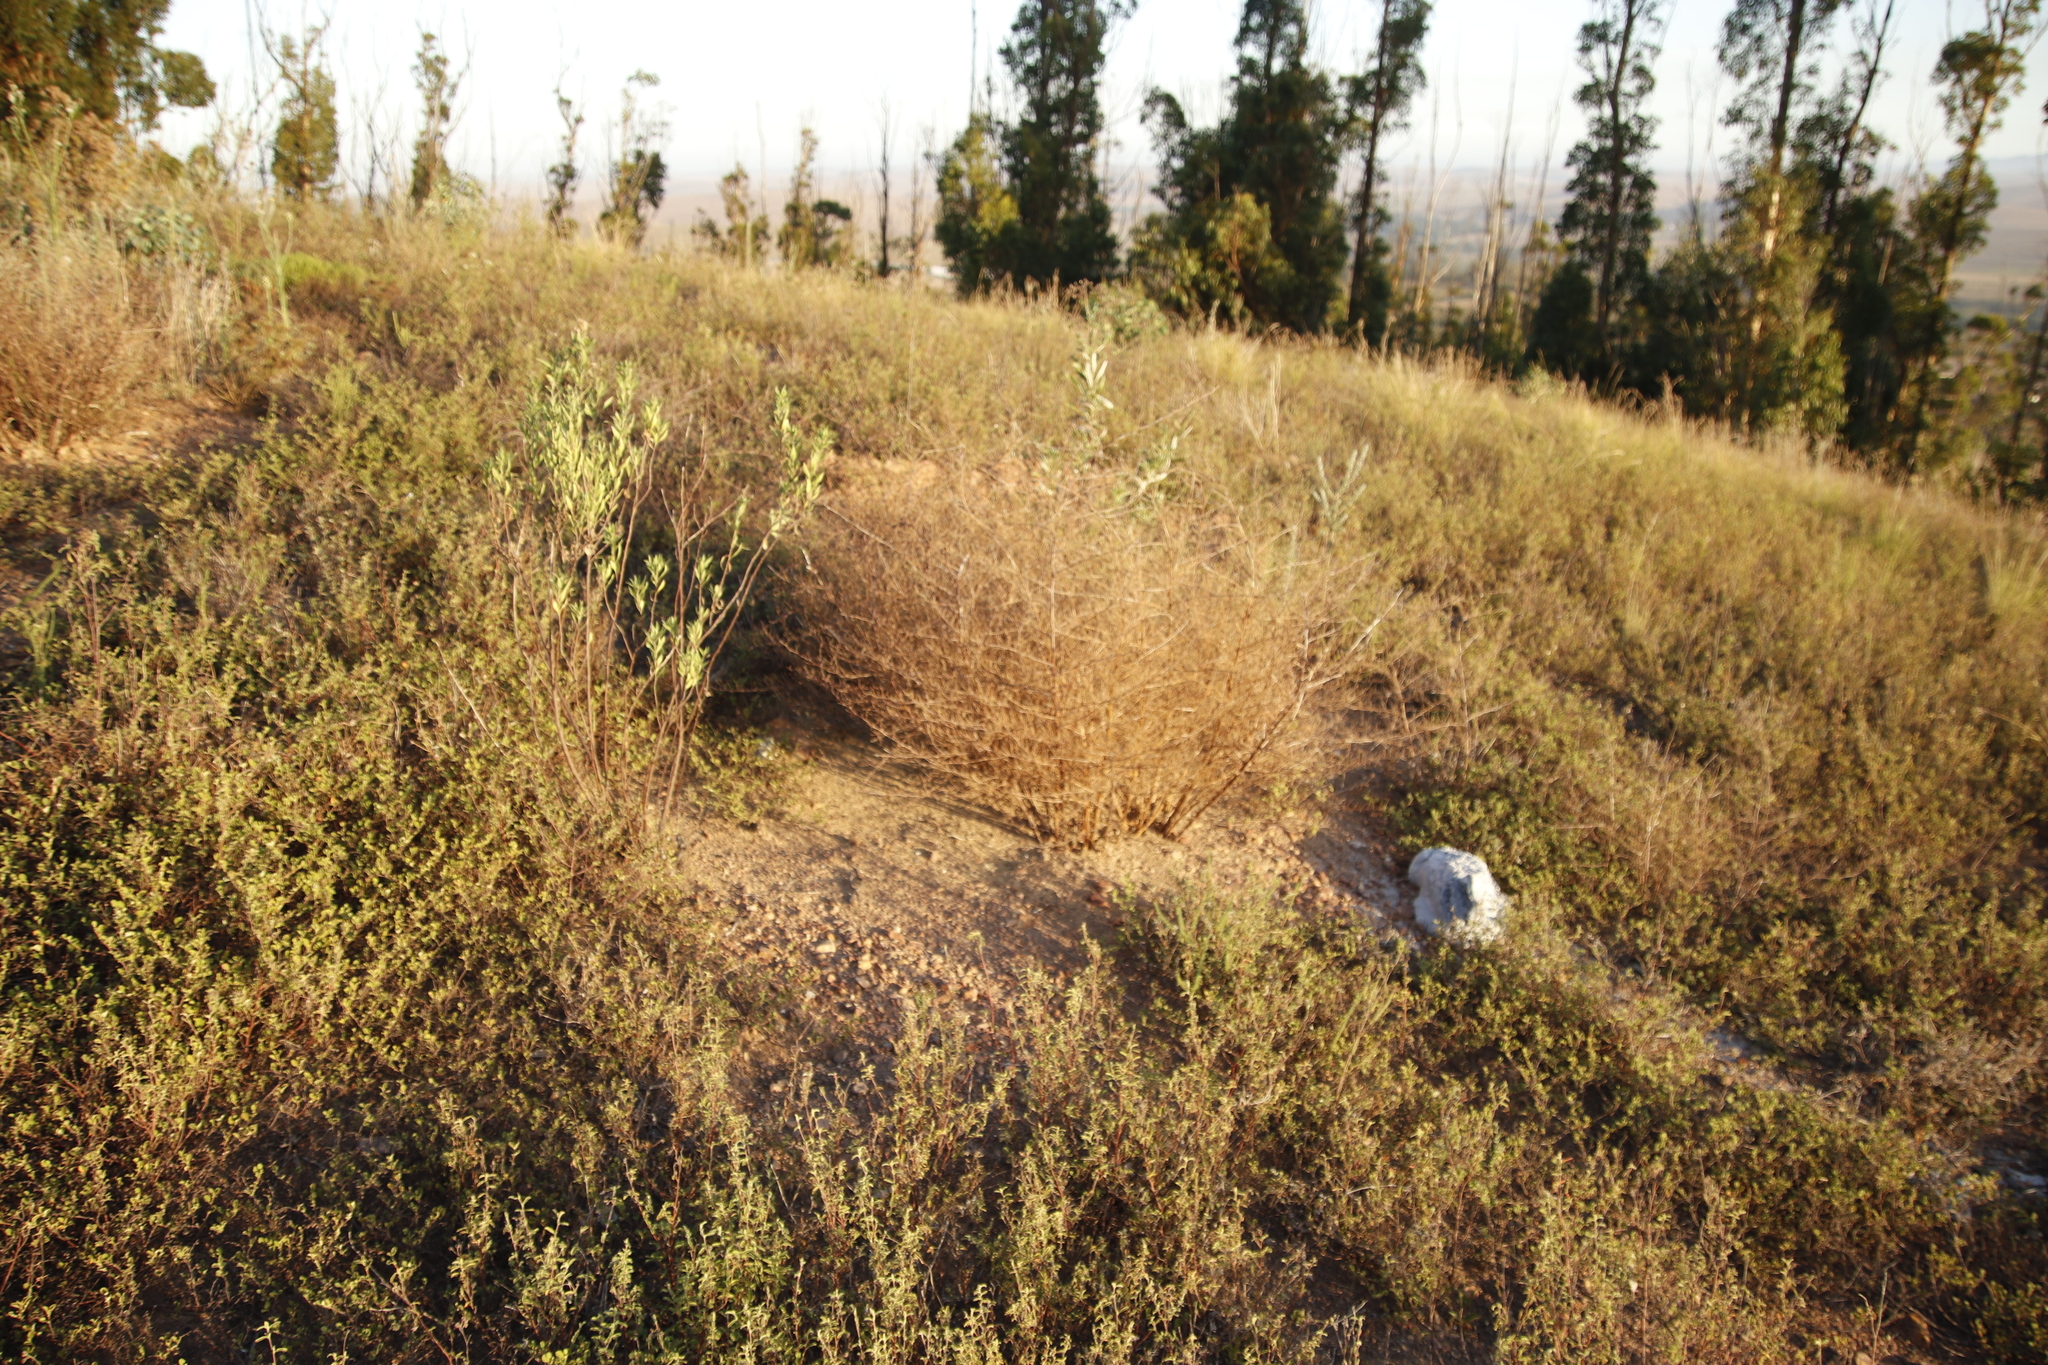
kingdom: Plantae
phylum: Tracheophyta
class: Liliopsida
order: Asparagales
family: Asparagaceae
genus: Asparagus
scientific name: Asparagus rubicundus
